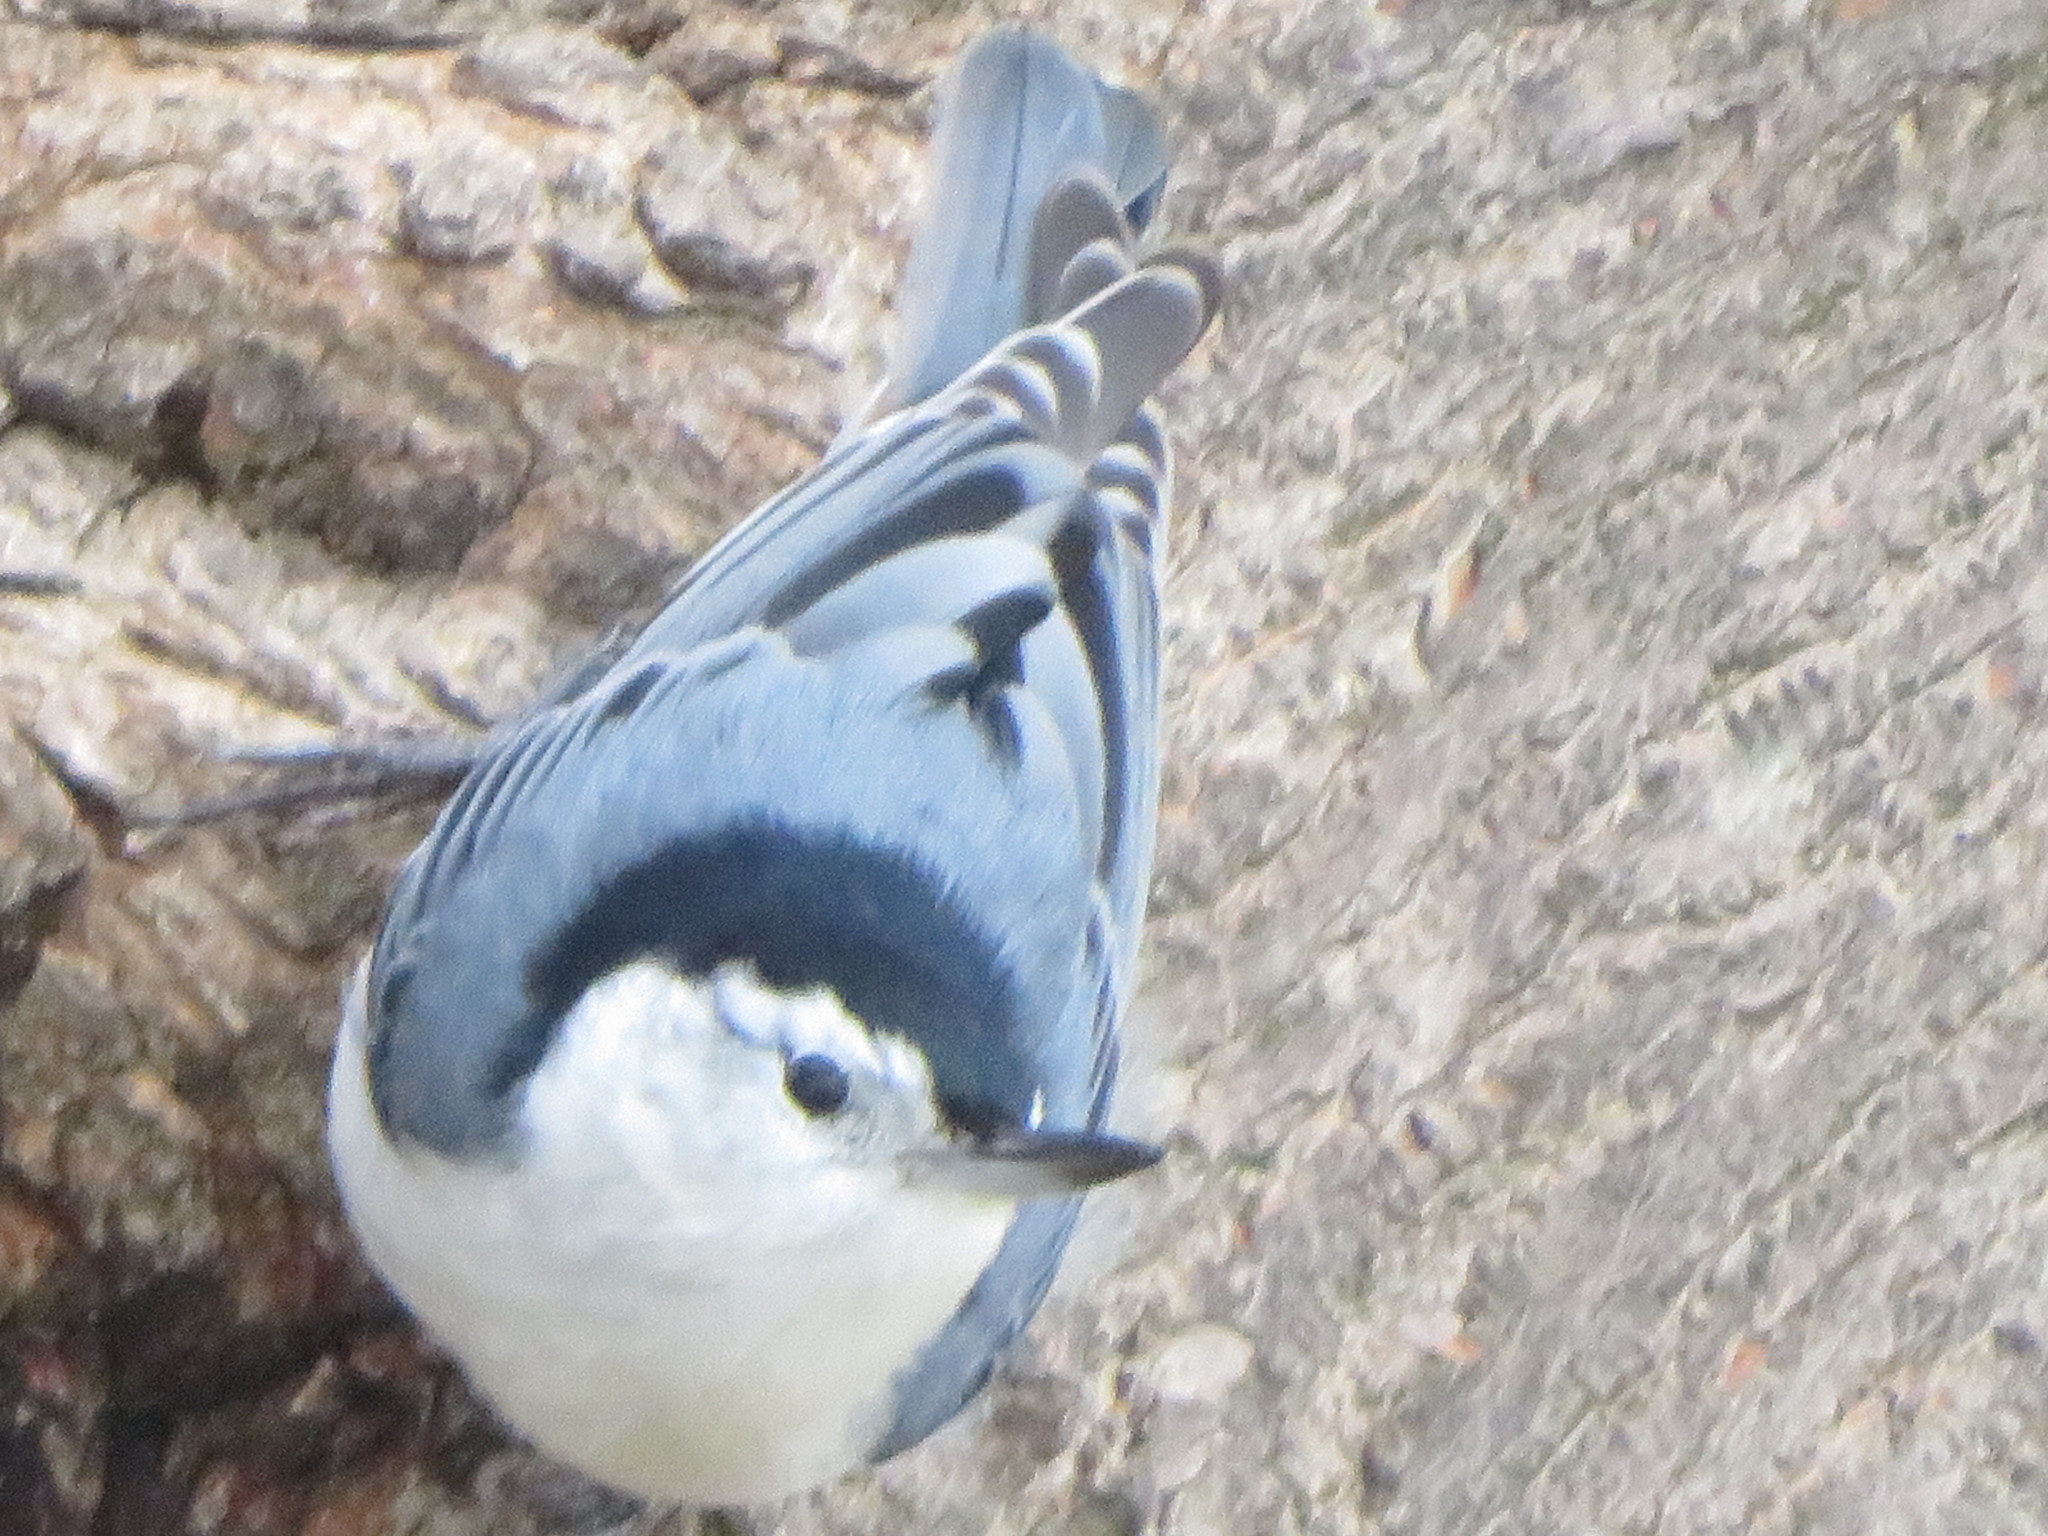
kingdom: Animalia
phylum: Chordata
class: Aves
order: Passeriformes
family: Sittidae
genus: Sitta
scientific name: Sitta carolinensis
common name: White-breasted nuthatch
